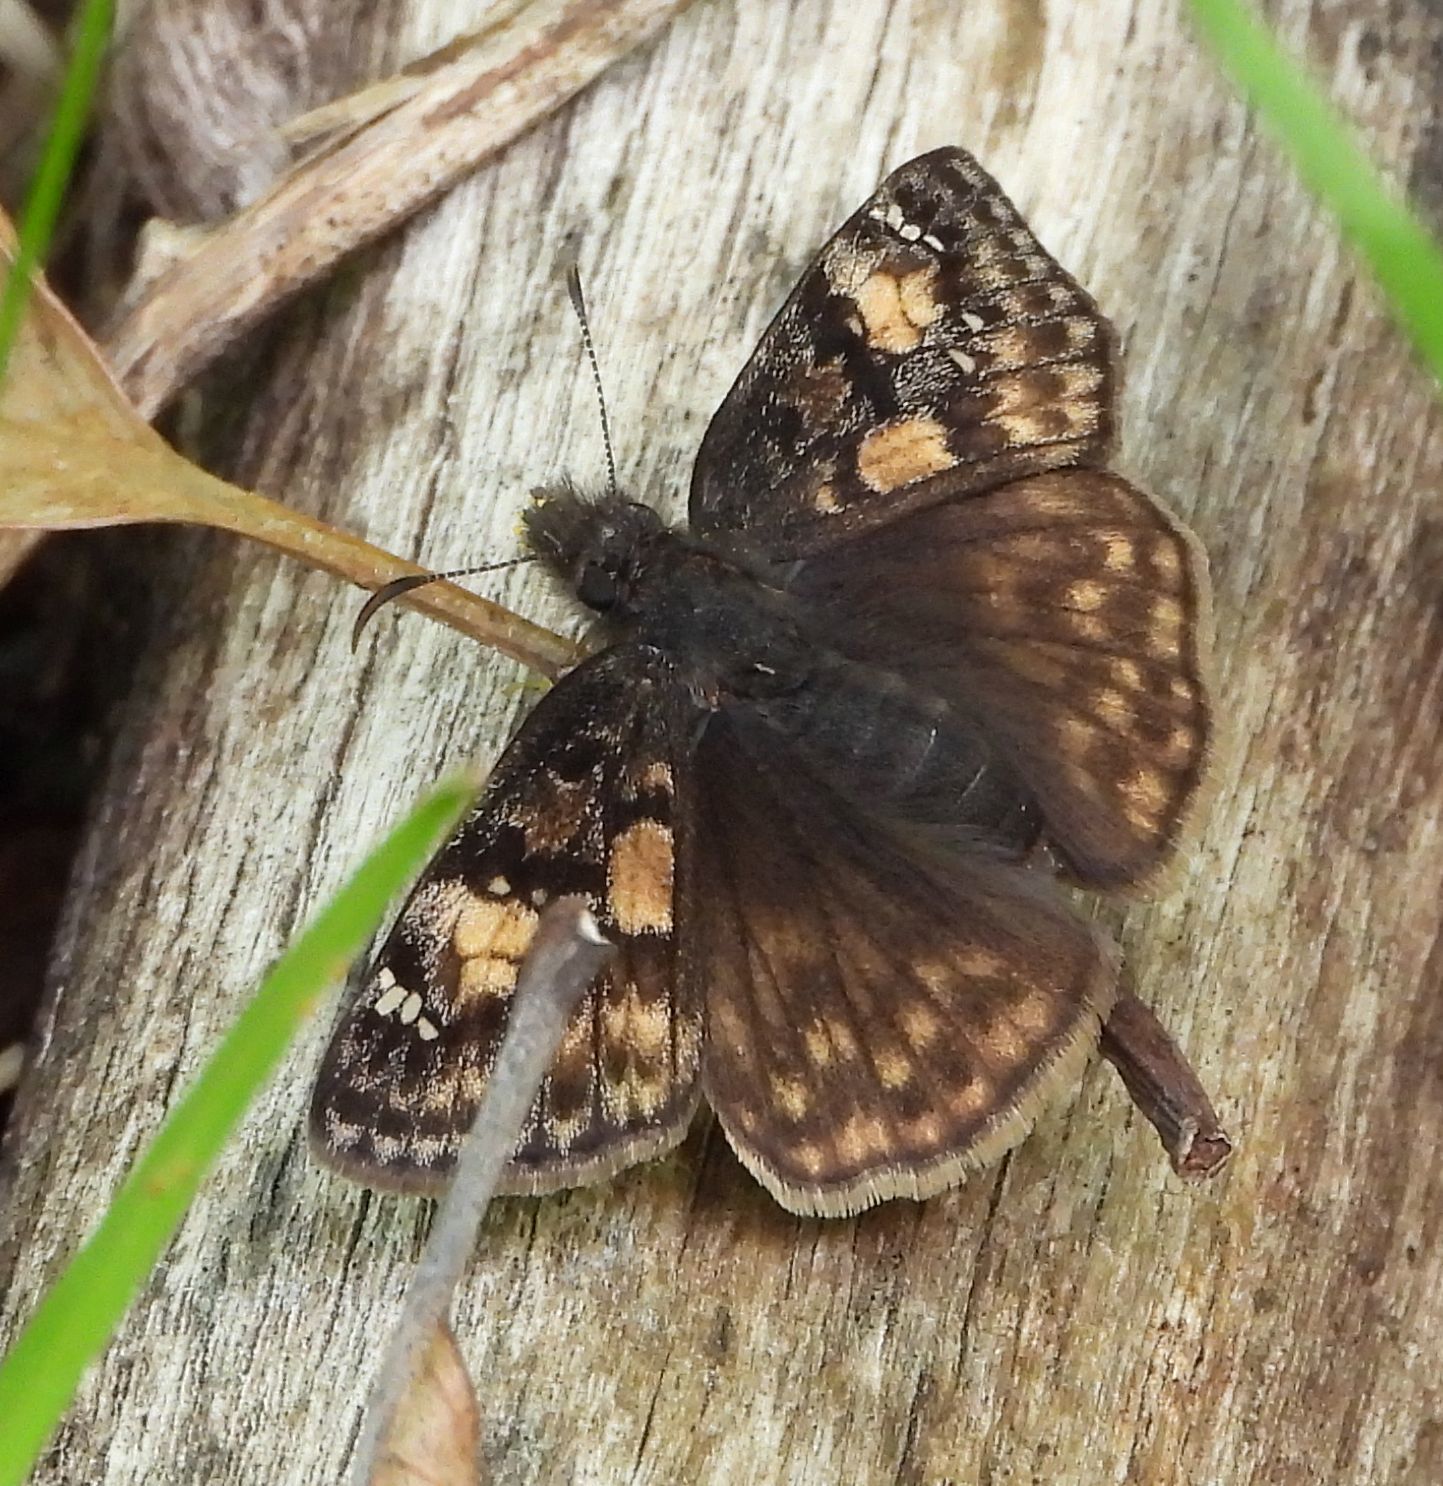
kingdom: Animalia
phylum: Arthropoda
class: Insecta
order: Lepidoptera
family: Hesperiidae
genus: Erynnis
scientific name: Erynnis juvenalis
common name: Juvenal's duskywing
